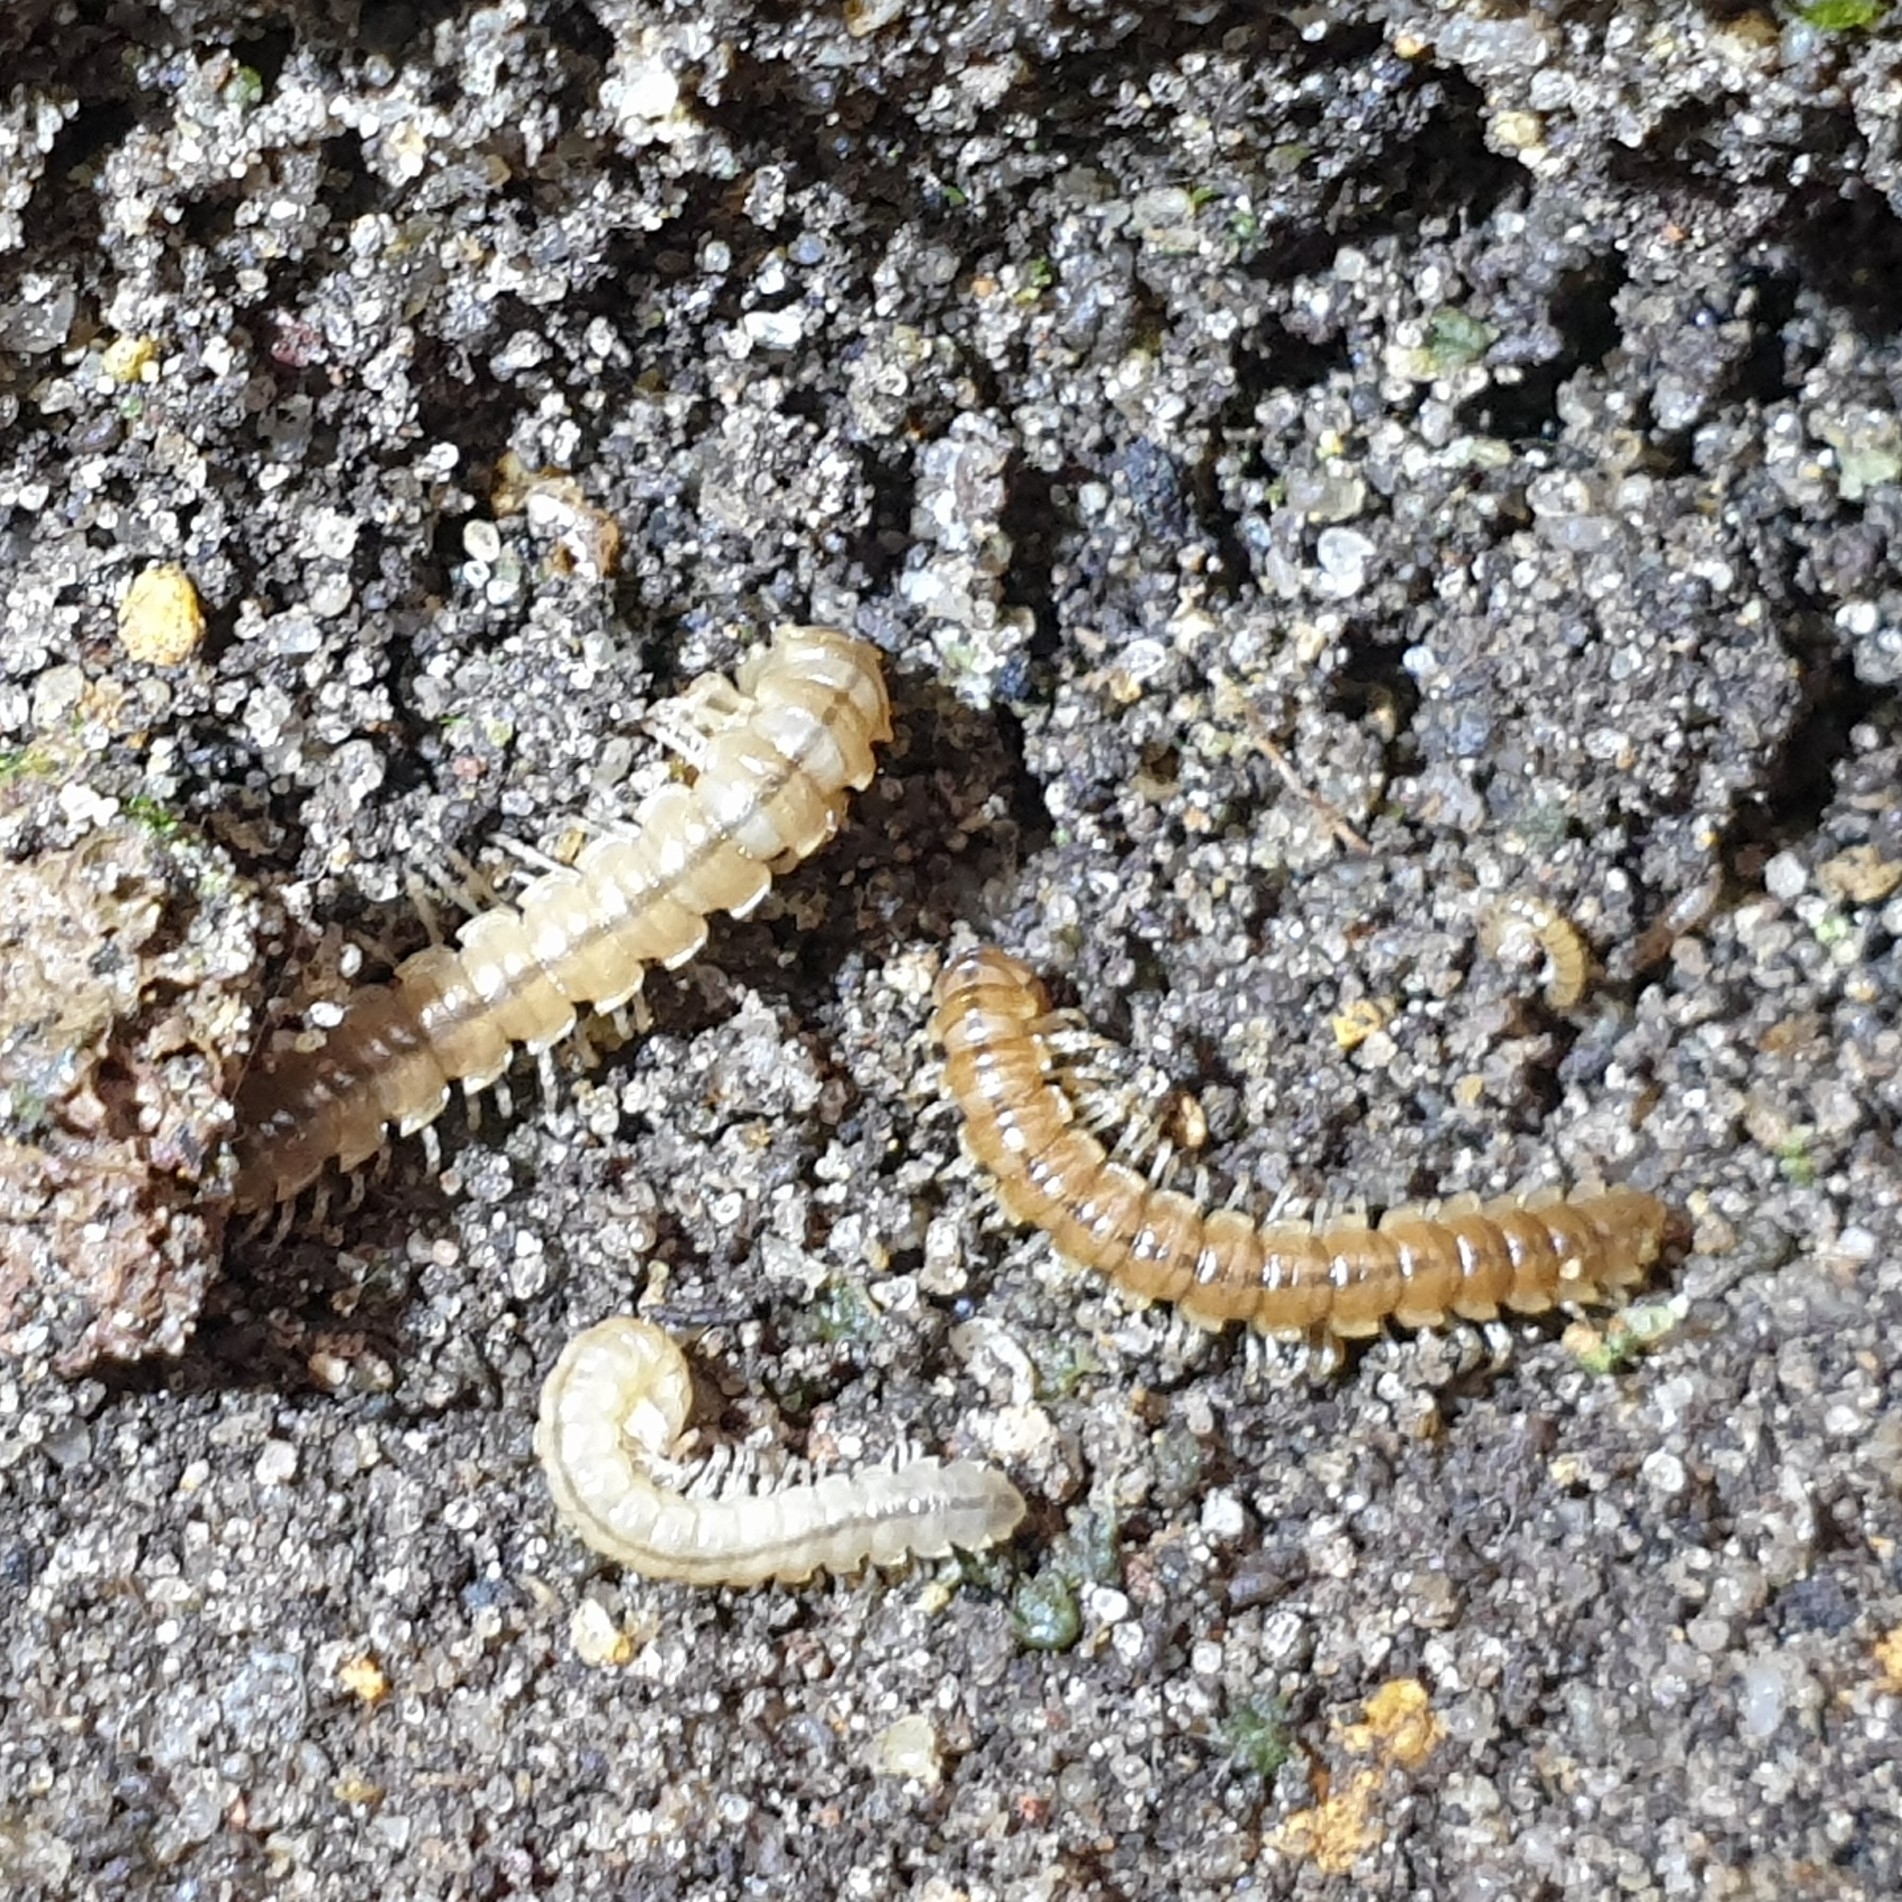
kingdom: Animalia
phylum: Arthropoda
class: Diplopoda
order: Polydesmida
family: Paradoxosomatidae
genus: Oxidus
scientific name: Oxidus gracilis
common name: Greenhouse millipede
